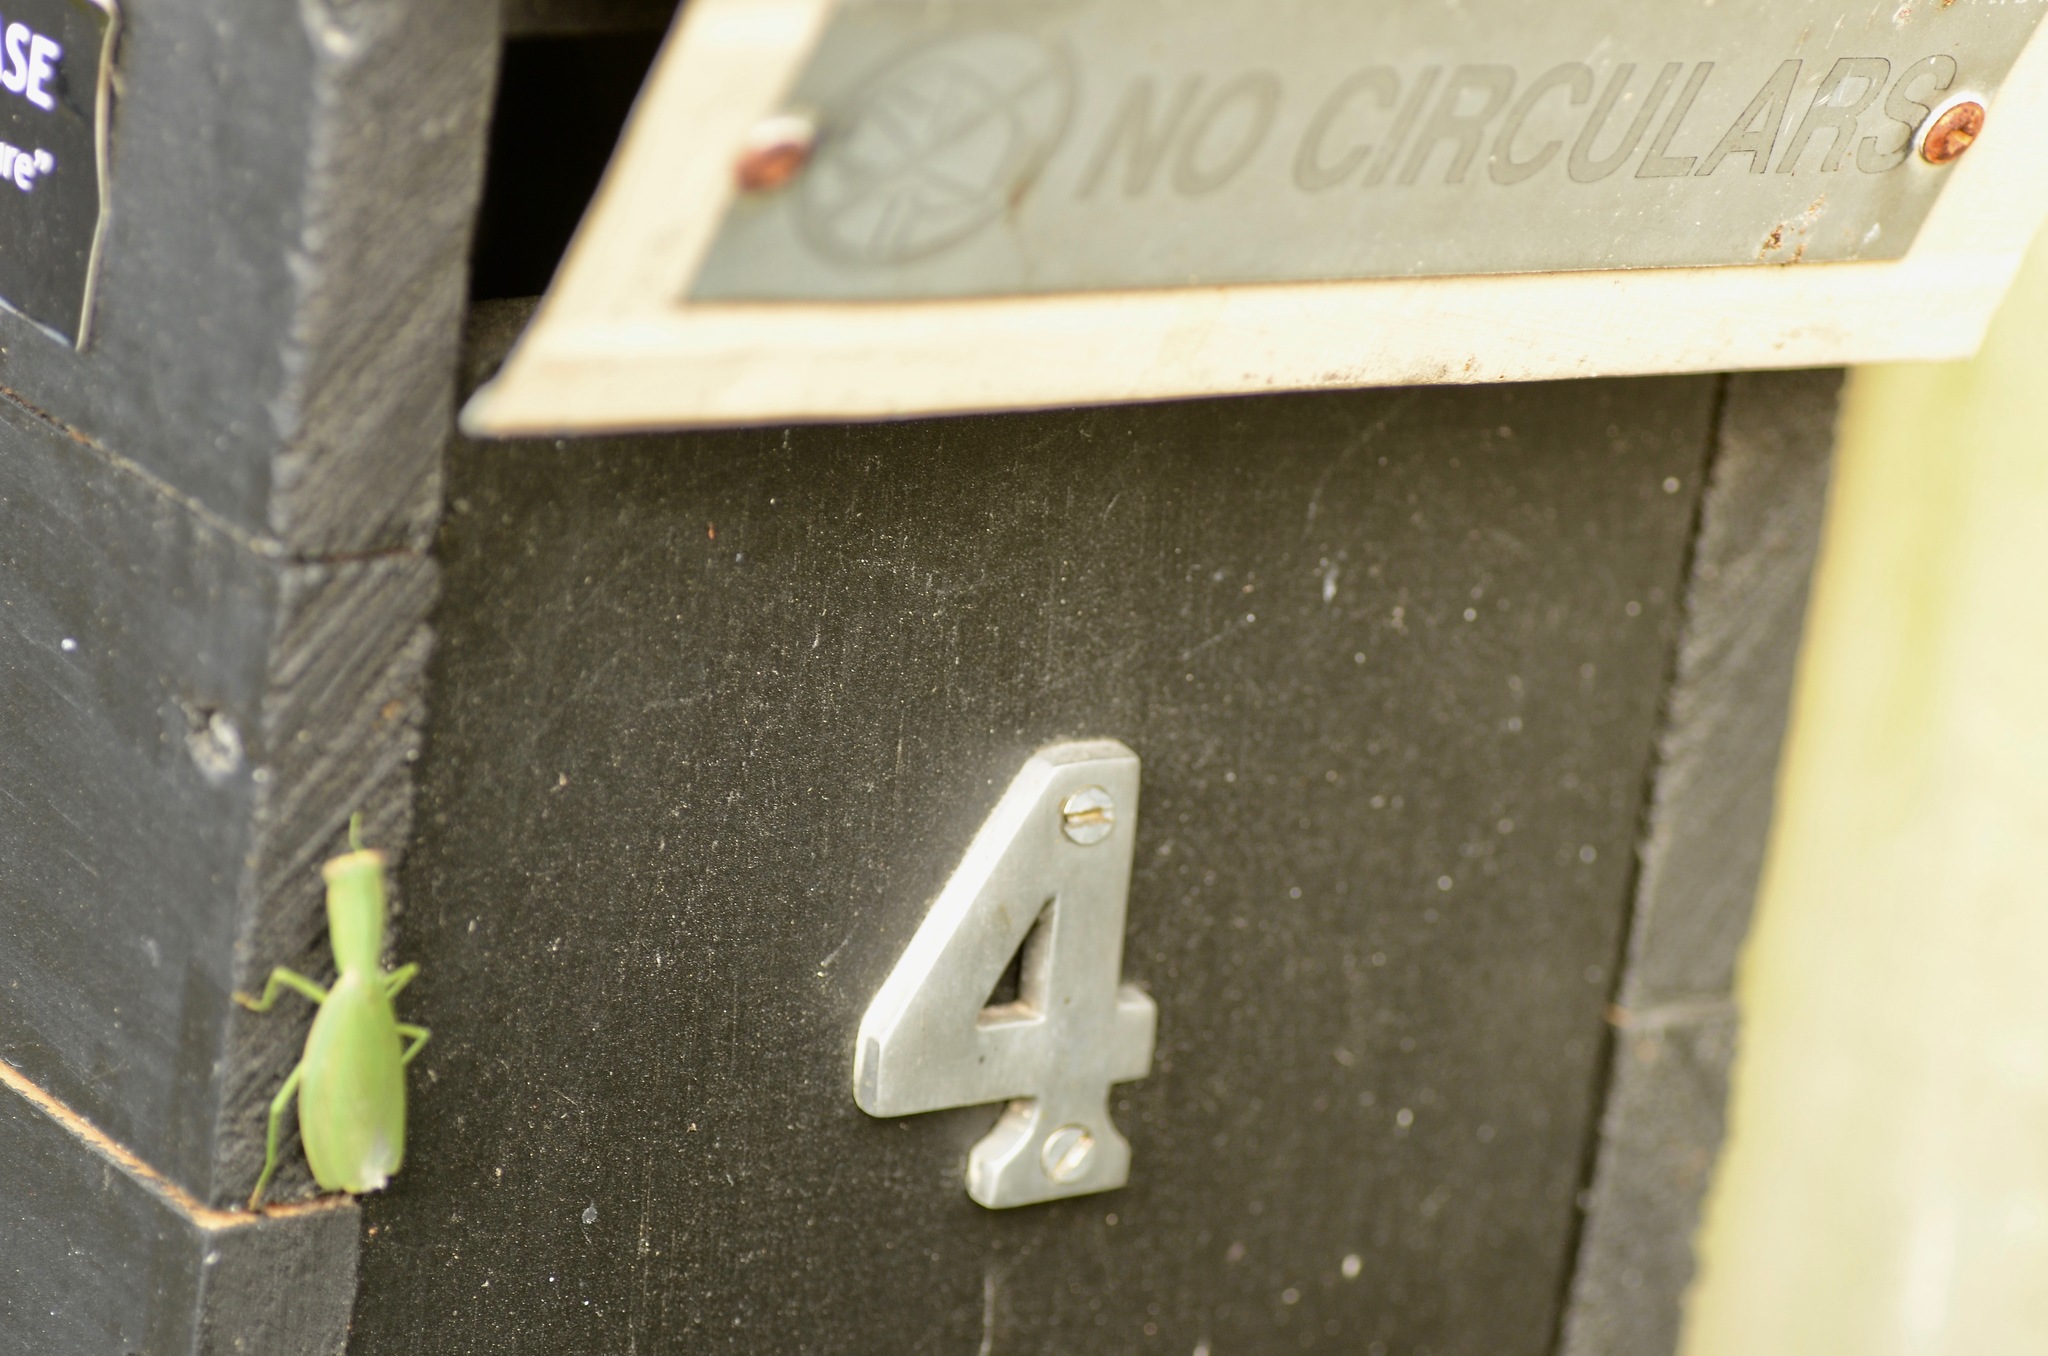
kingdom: Animalia
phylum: Arthropoda
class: Insecta
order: Mantodea
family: Mantidae
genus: Orthodera
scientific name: Orthodera novaezealandiae
